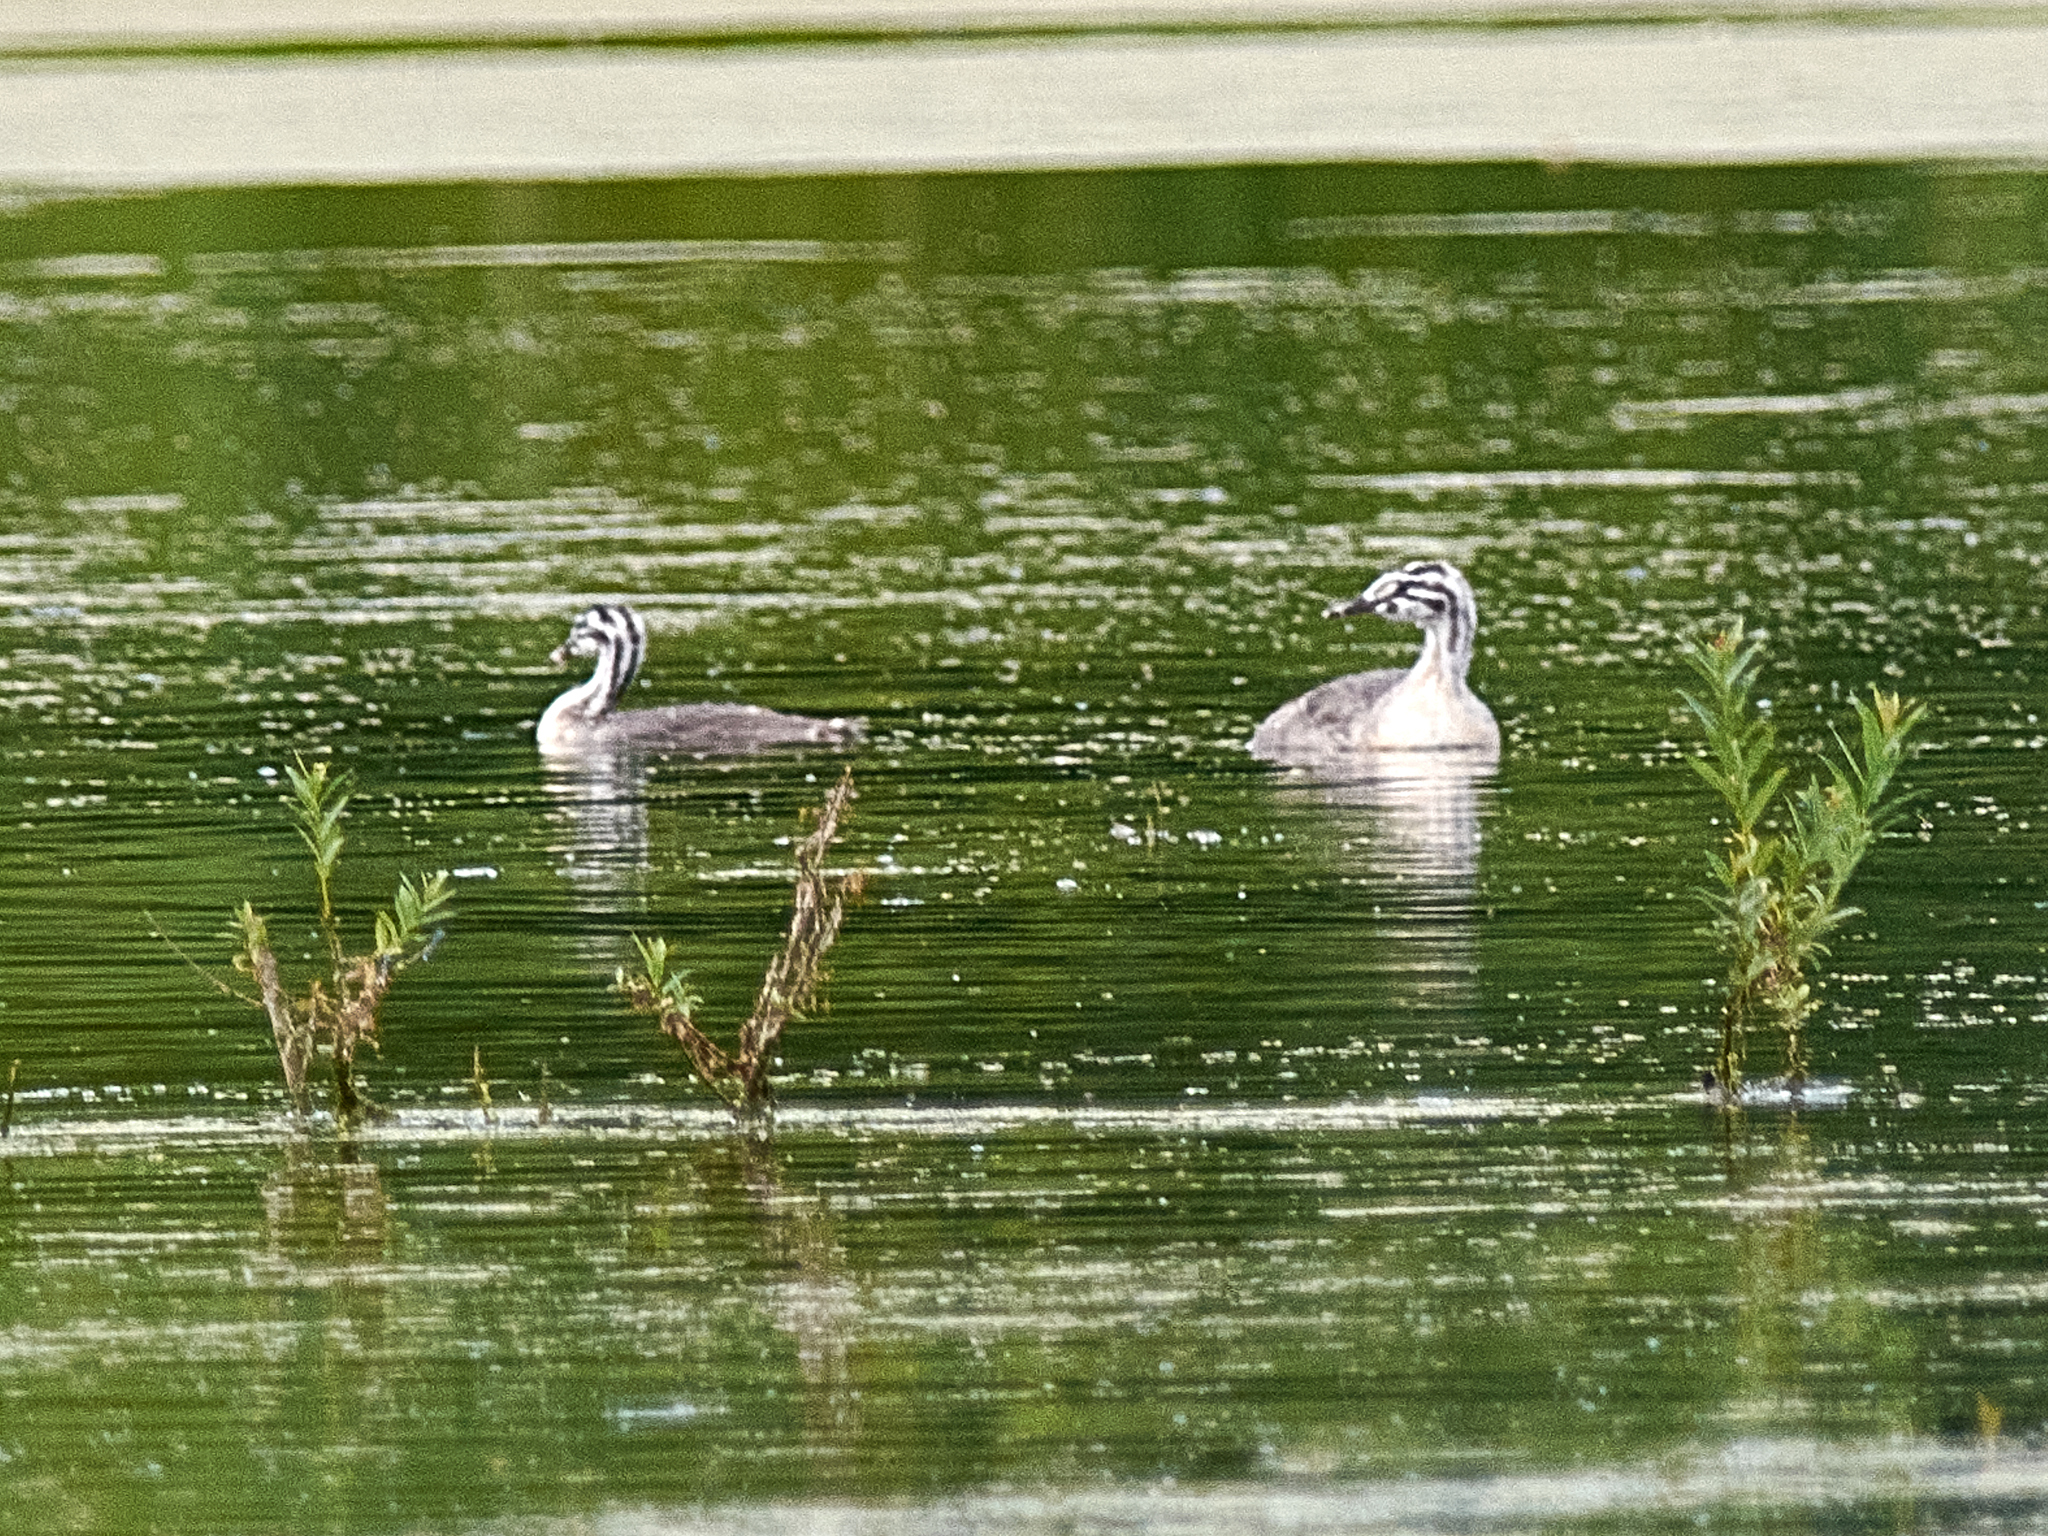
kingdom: Animalia
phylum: Chordata
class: Aves
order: Podicipediformes
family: Podicipedidae
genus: Podiceps
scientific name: Podiceps cristatus
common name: Great crested grebe
